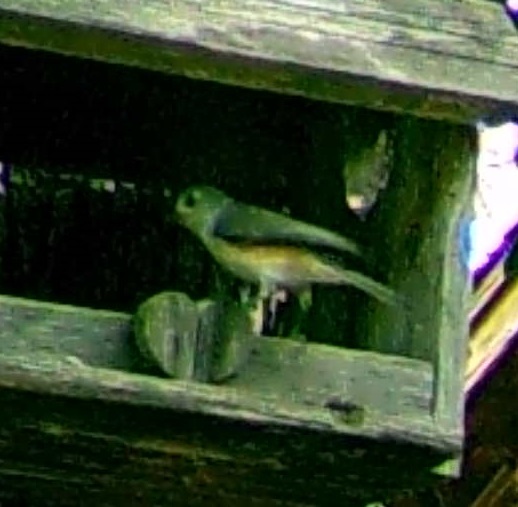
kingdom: Animalia
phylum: Chordata
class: Aves
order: Passeriformes
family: Paridae
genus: Baeolophus
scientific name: Baeolophus bicolor
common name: Tufted titmouse
